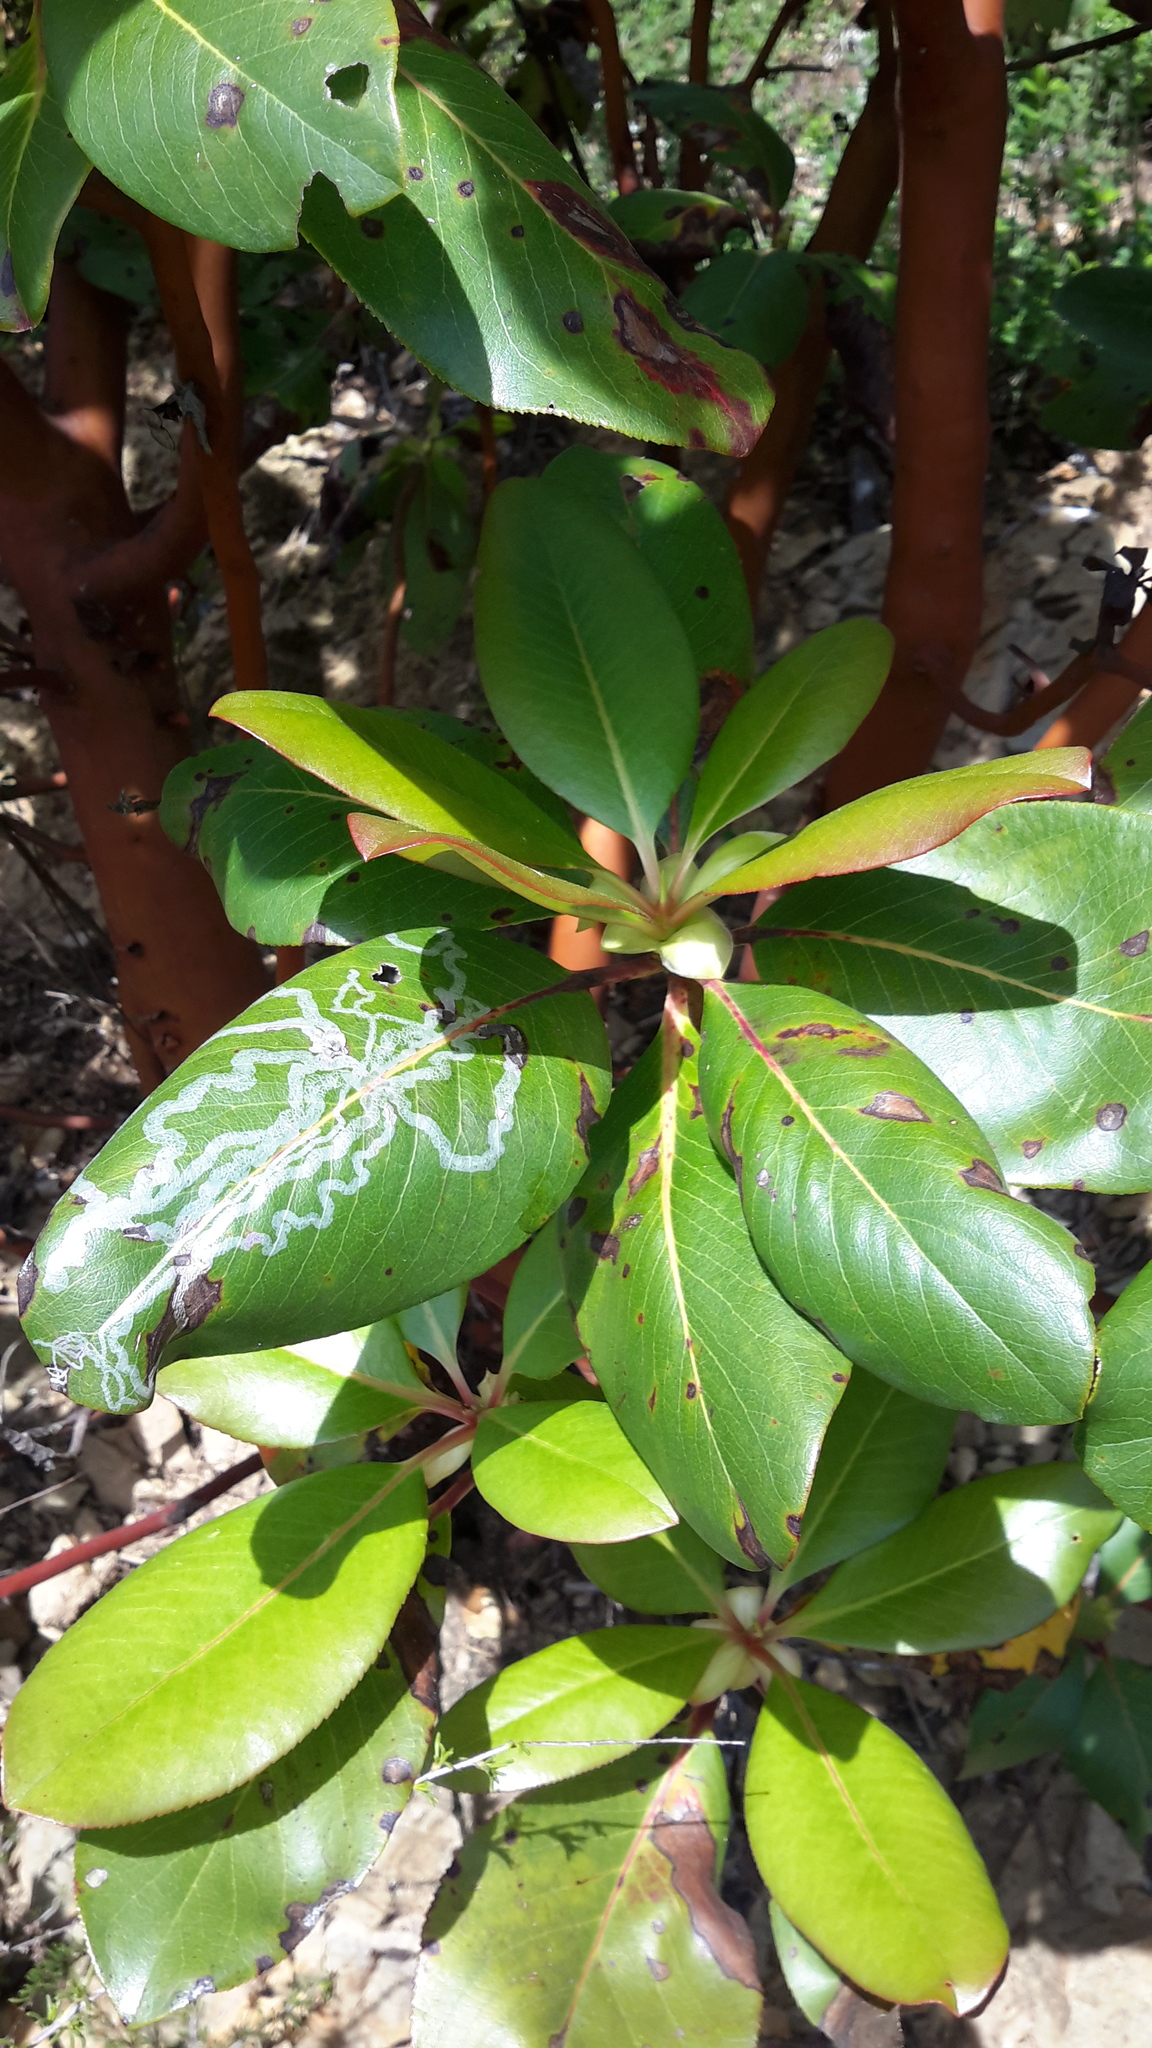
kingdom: Animalia
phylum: Arthropoda
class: Insecta
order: Lepidoptera
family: Gracillariidae
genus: Marmara
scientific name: Marmara arbutiella
